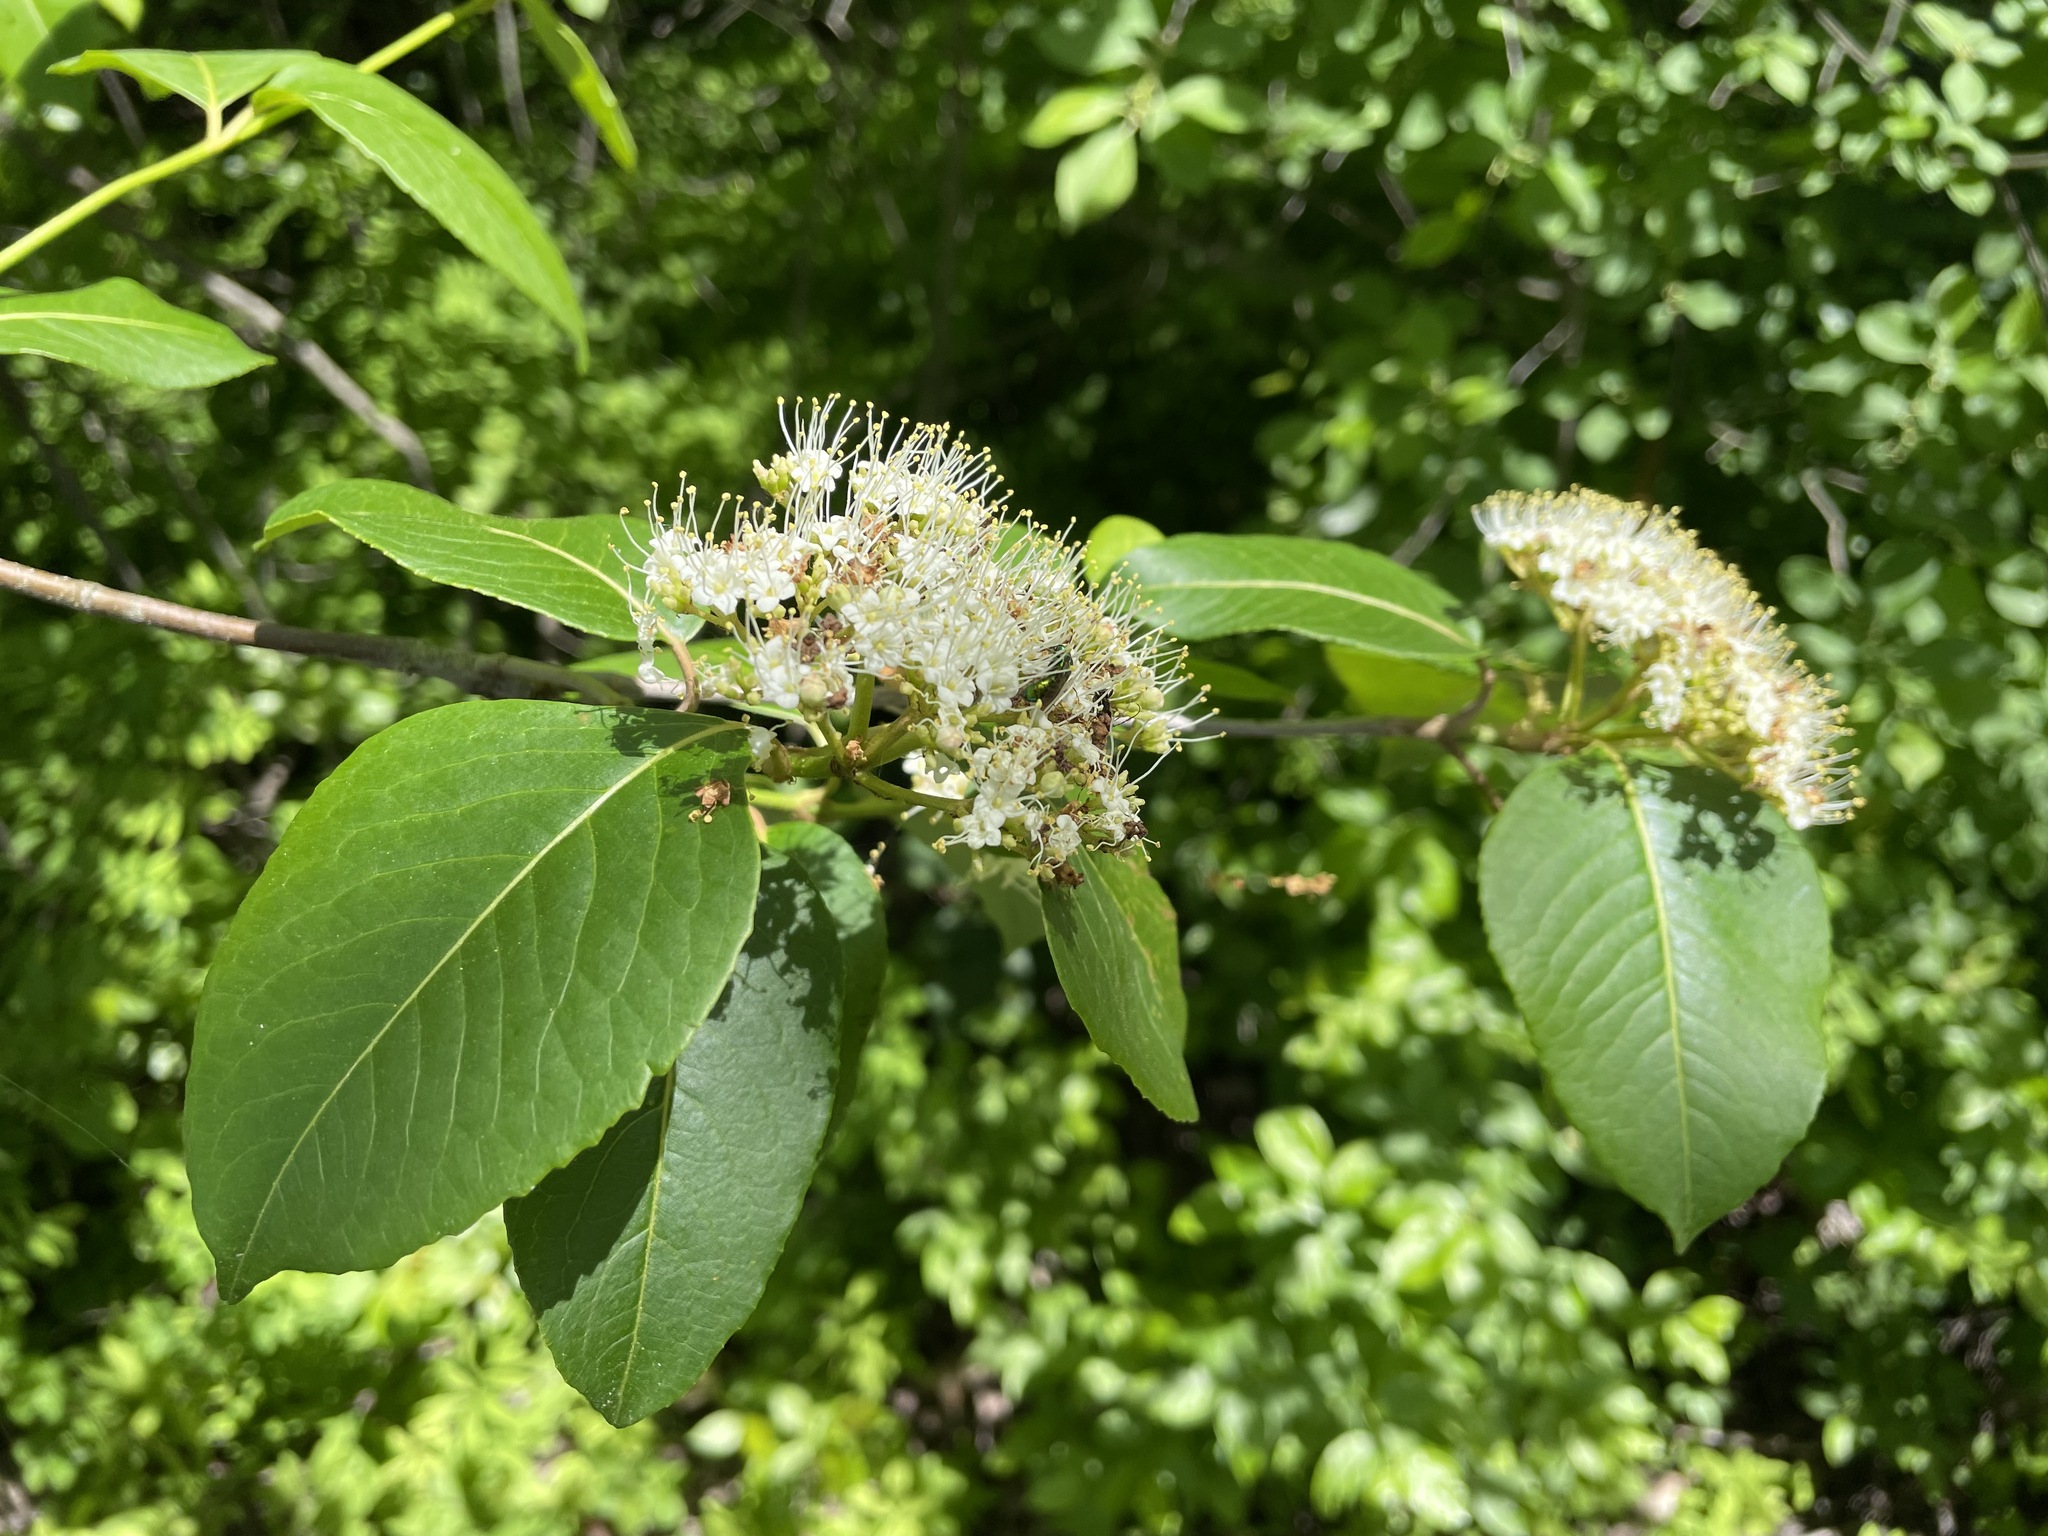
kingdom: Plantae
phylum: Tracheophyta
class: Magnoliopsida
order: Dipsacales
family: Viburnaceae
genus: Viburnum
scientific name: Viburnum cassinoides
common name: Swamp haw
